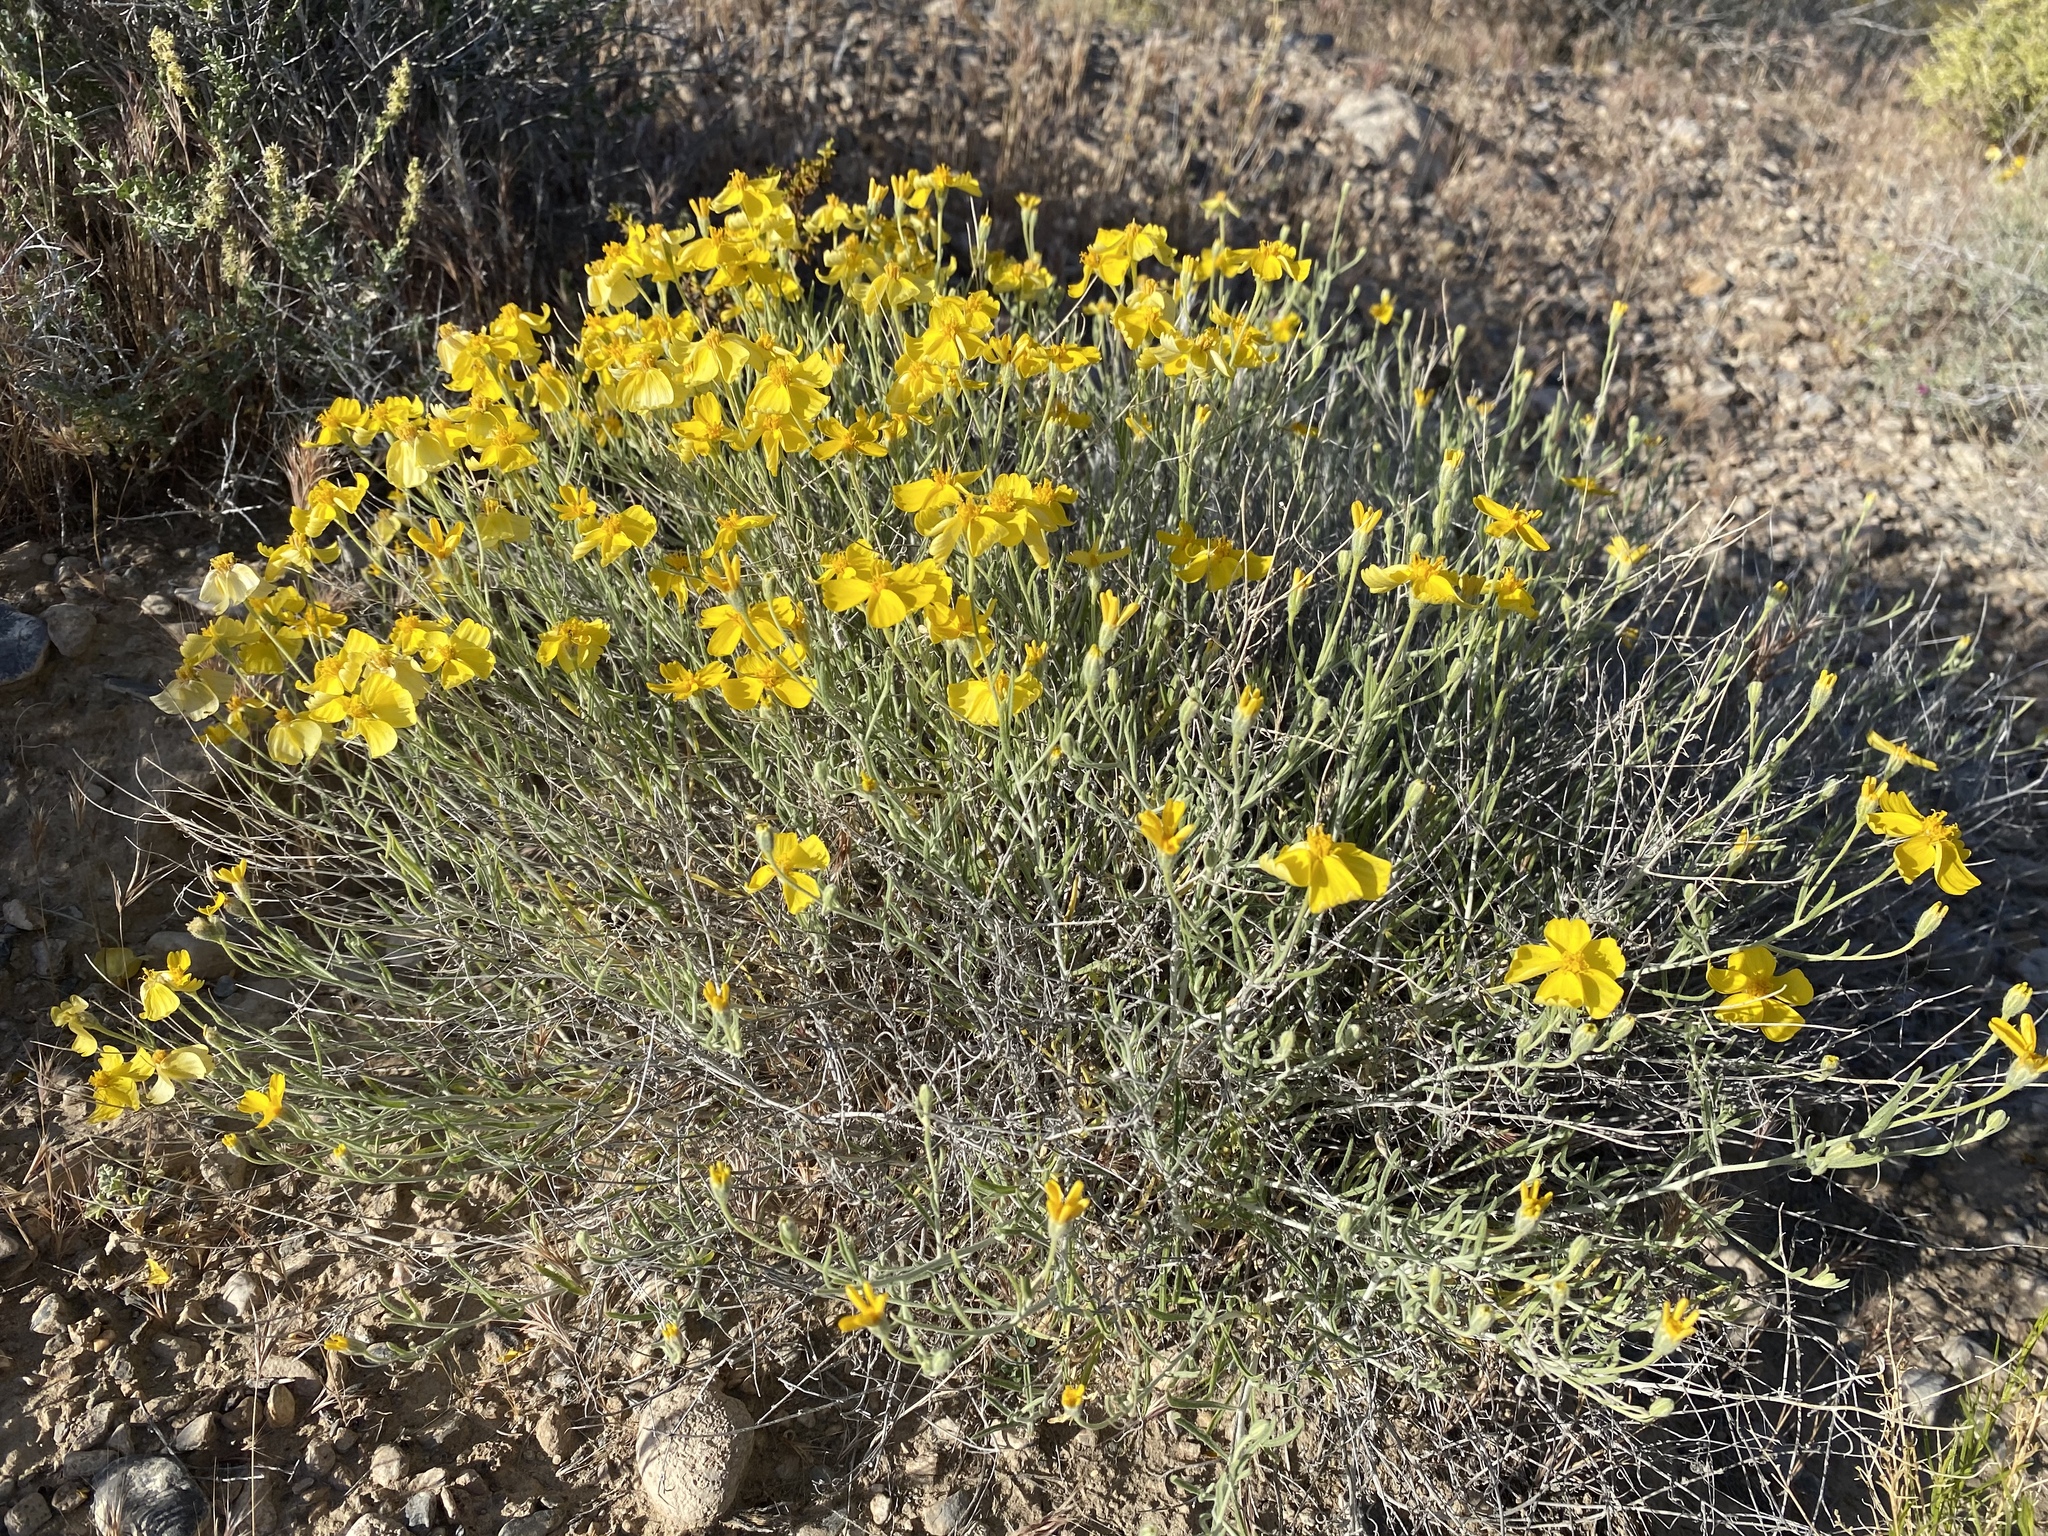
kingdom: Plantae
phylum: Tracheophyta
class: Magnoliopsida
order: Asterales
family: Asteraceae
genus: Psilostrophe
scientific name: Psilostrophe cooperi
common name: White-stem paper-flower
